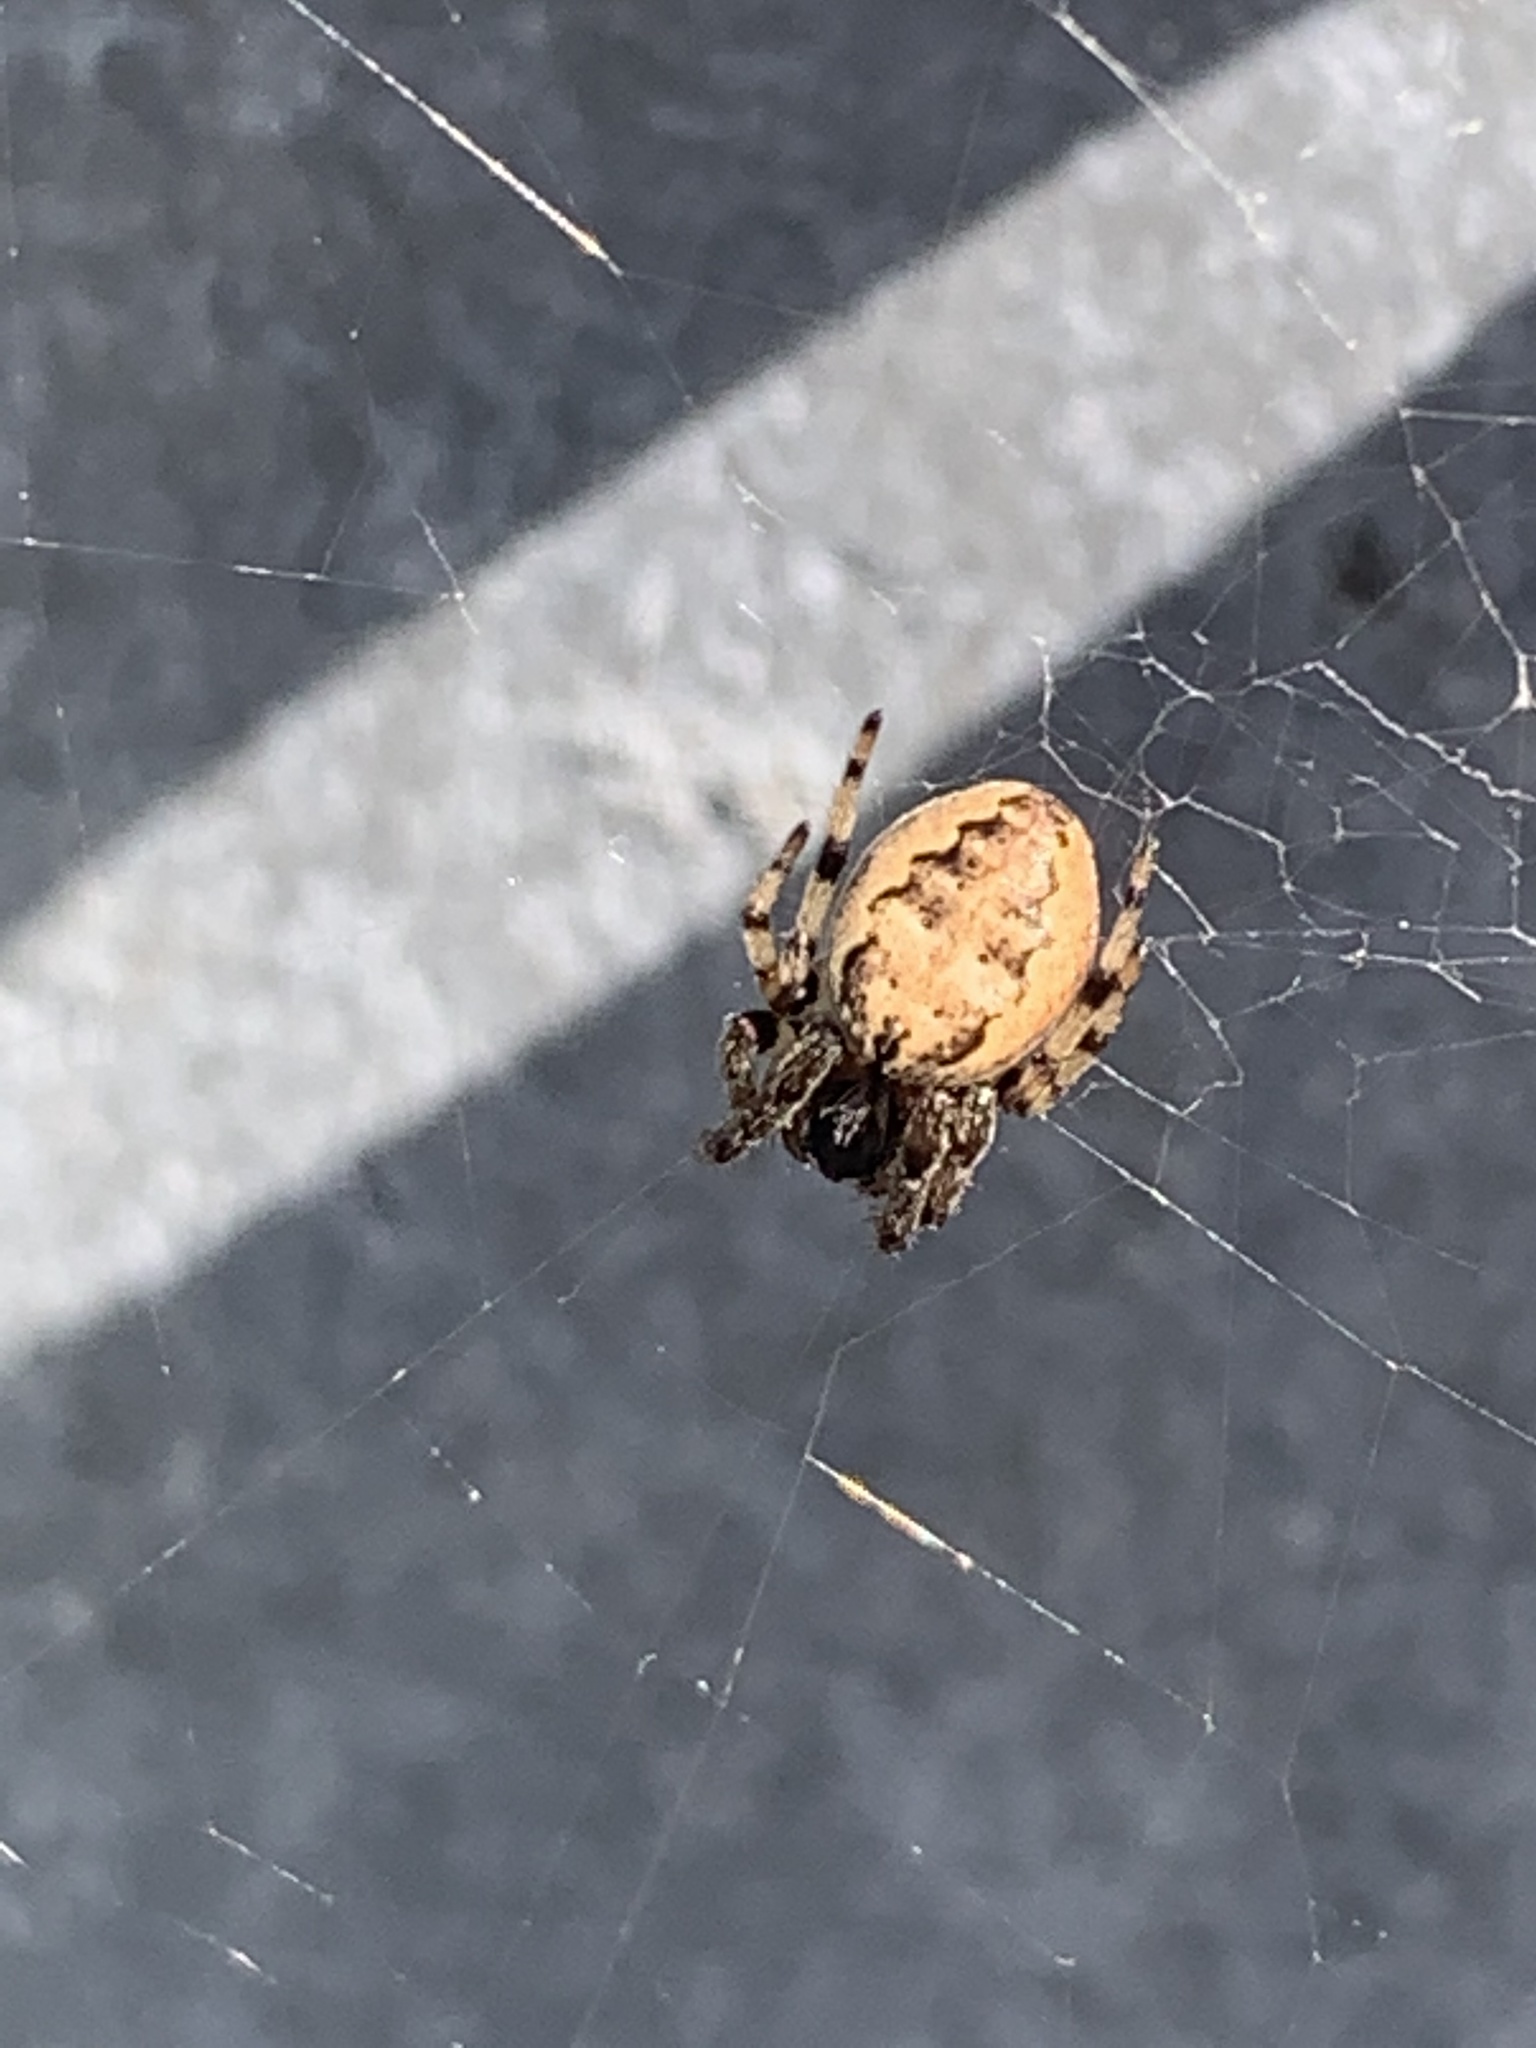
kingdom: Animalia
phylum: Arthropoda
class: Arachnida
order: Araneae
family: Araneidae
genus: Larinioides
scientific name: Larinioides cornutus
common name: Furrow orbweaver
